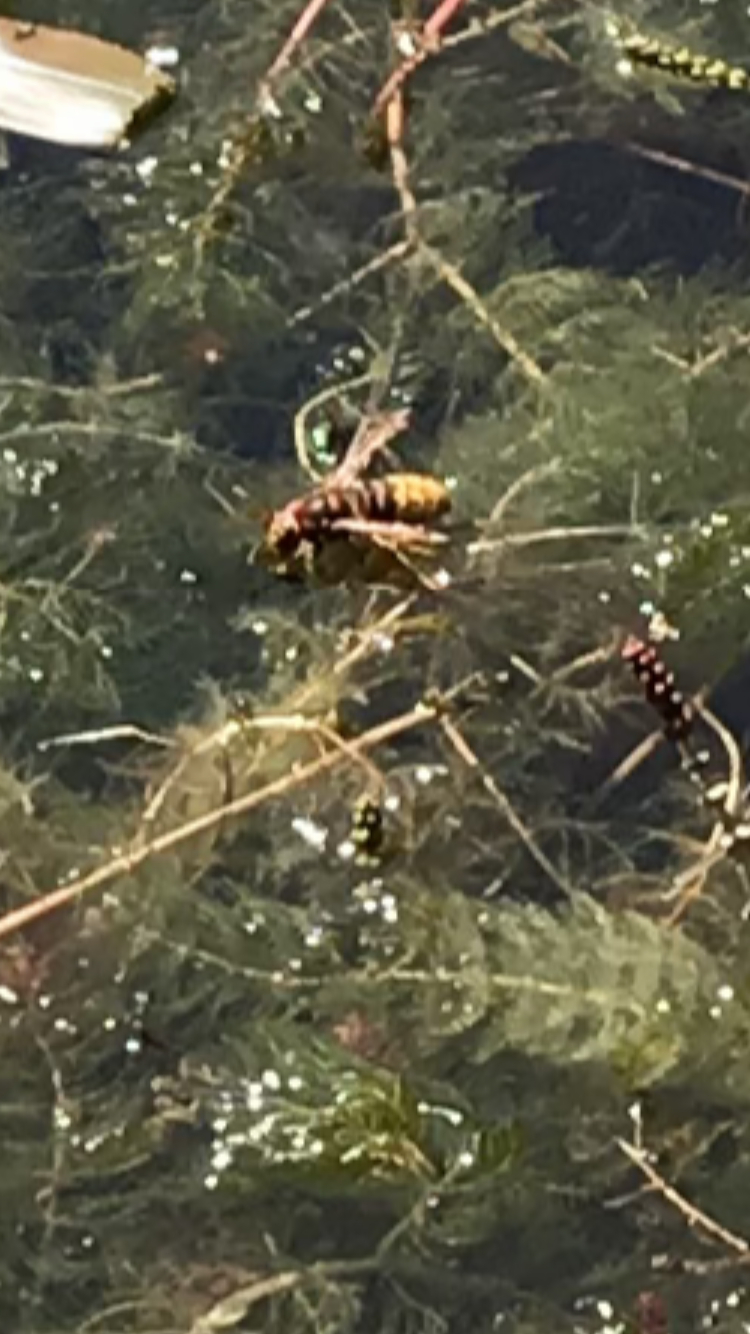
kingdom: Animalia
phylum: Arthropoda
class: Insecta
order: Hymenoptera
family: Vespidae
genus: Vespa
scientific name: Vespa crabro
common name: Hornet
